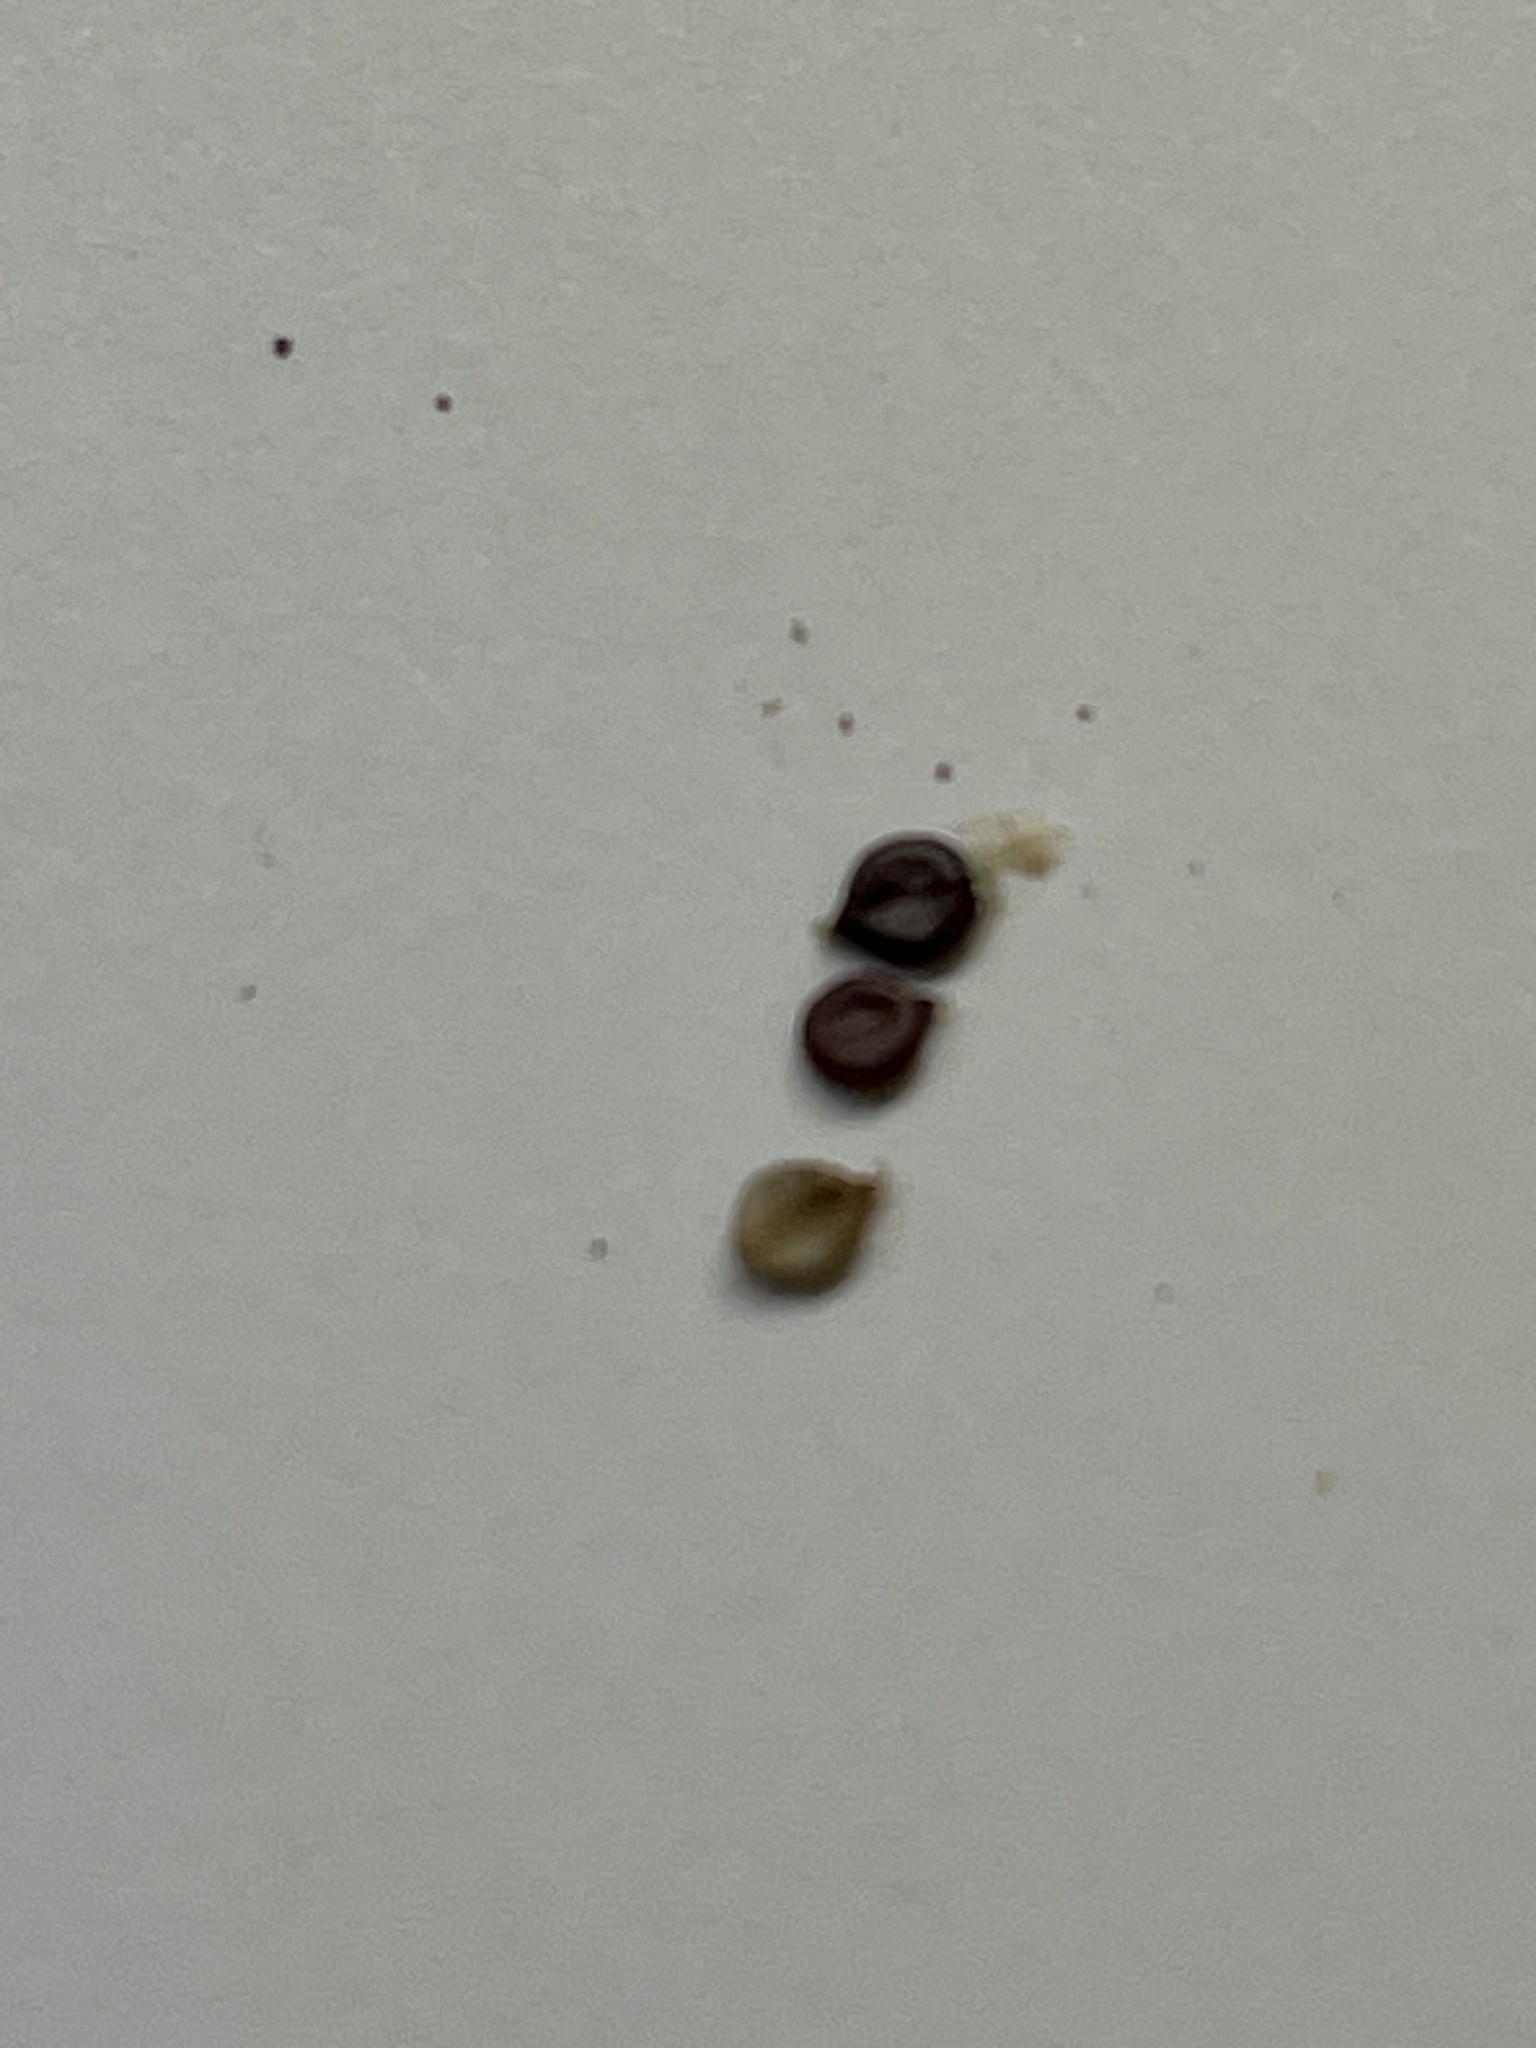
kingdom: Plantae
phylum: Tracheophyta
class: Magnoliopsida
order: Caryophyllales
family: Polygonaceae
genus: Persicaria
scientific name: Persicaria lapathifolia
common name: Curlytop knotweed
